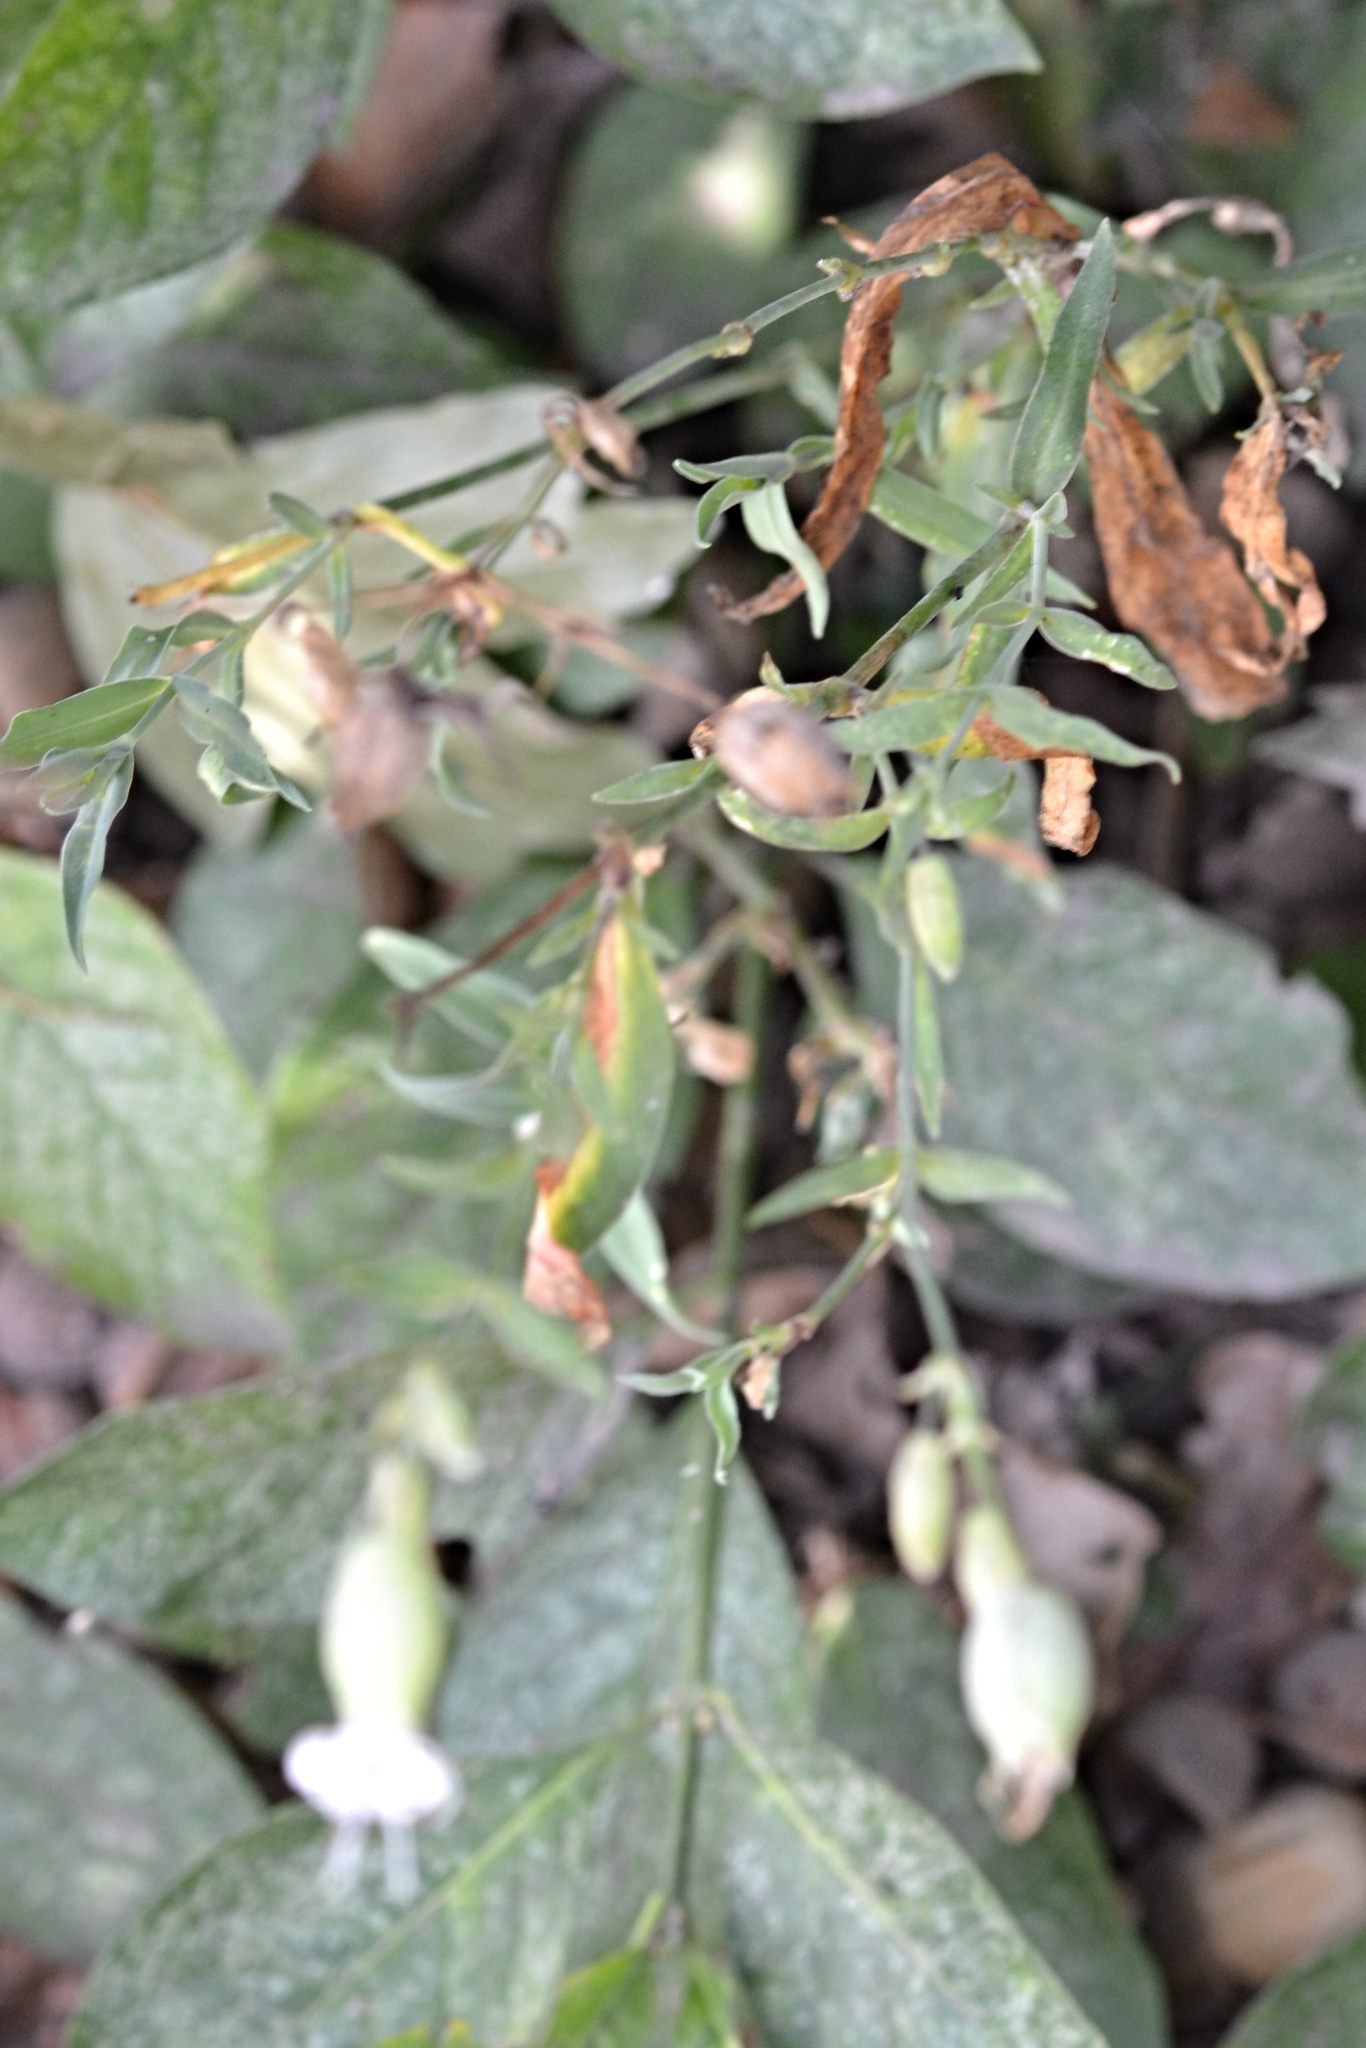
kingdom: Plantae
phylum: Tracheophyta
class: Magnoliopsida
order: Caryophyllales
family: Caryophyllaceae
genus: Silene
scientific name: Silene vulgaris
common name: Bladder campion
